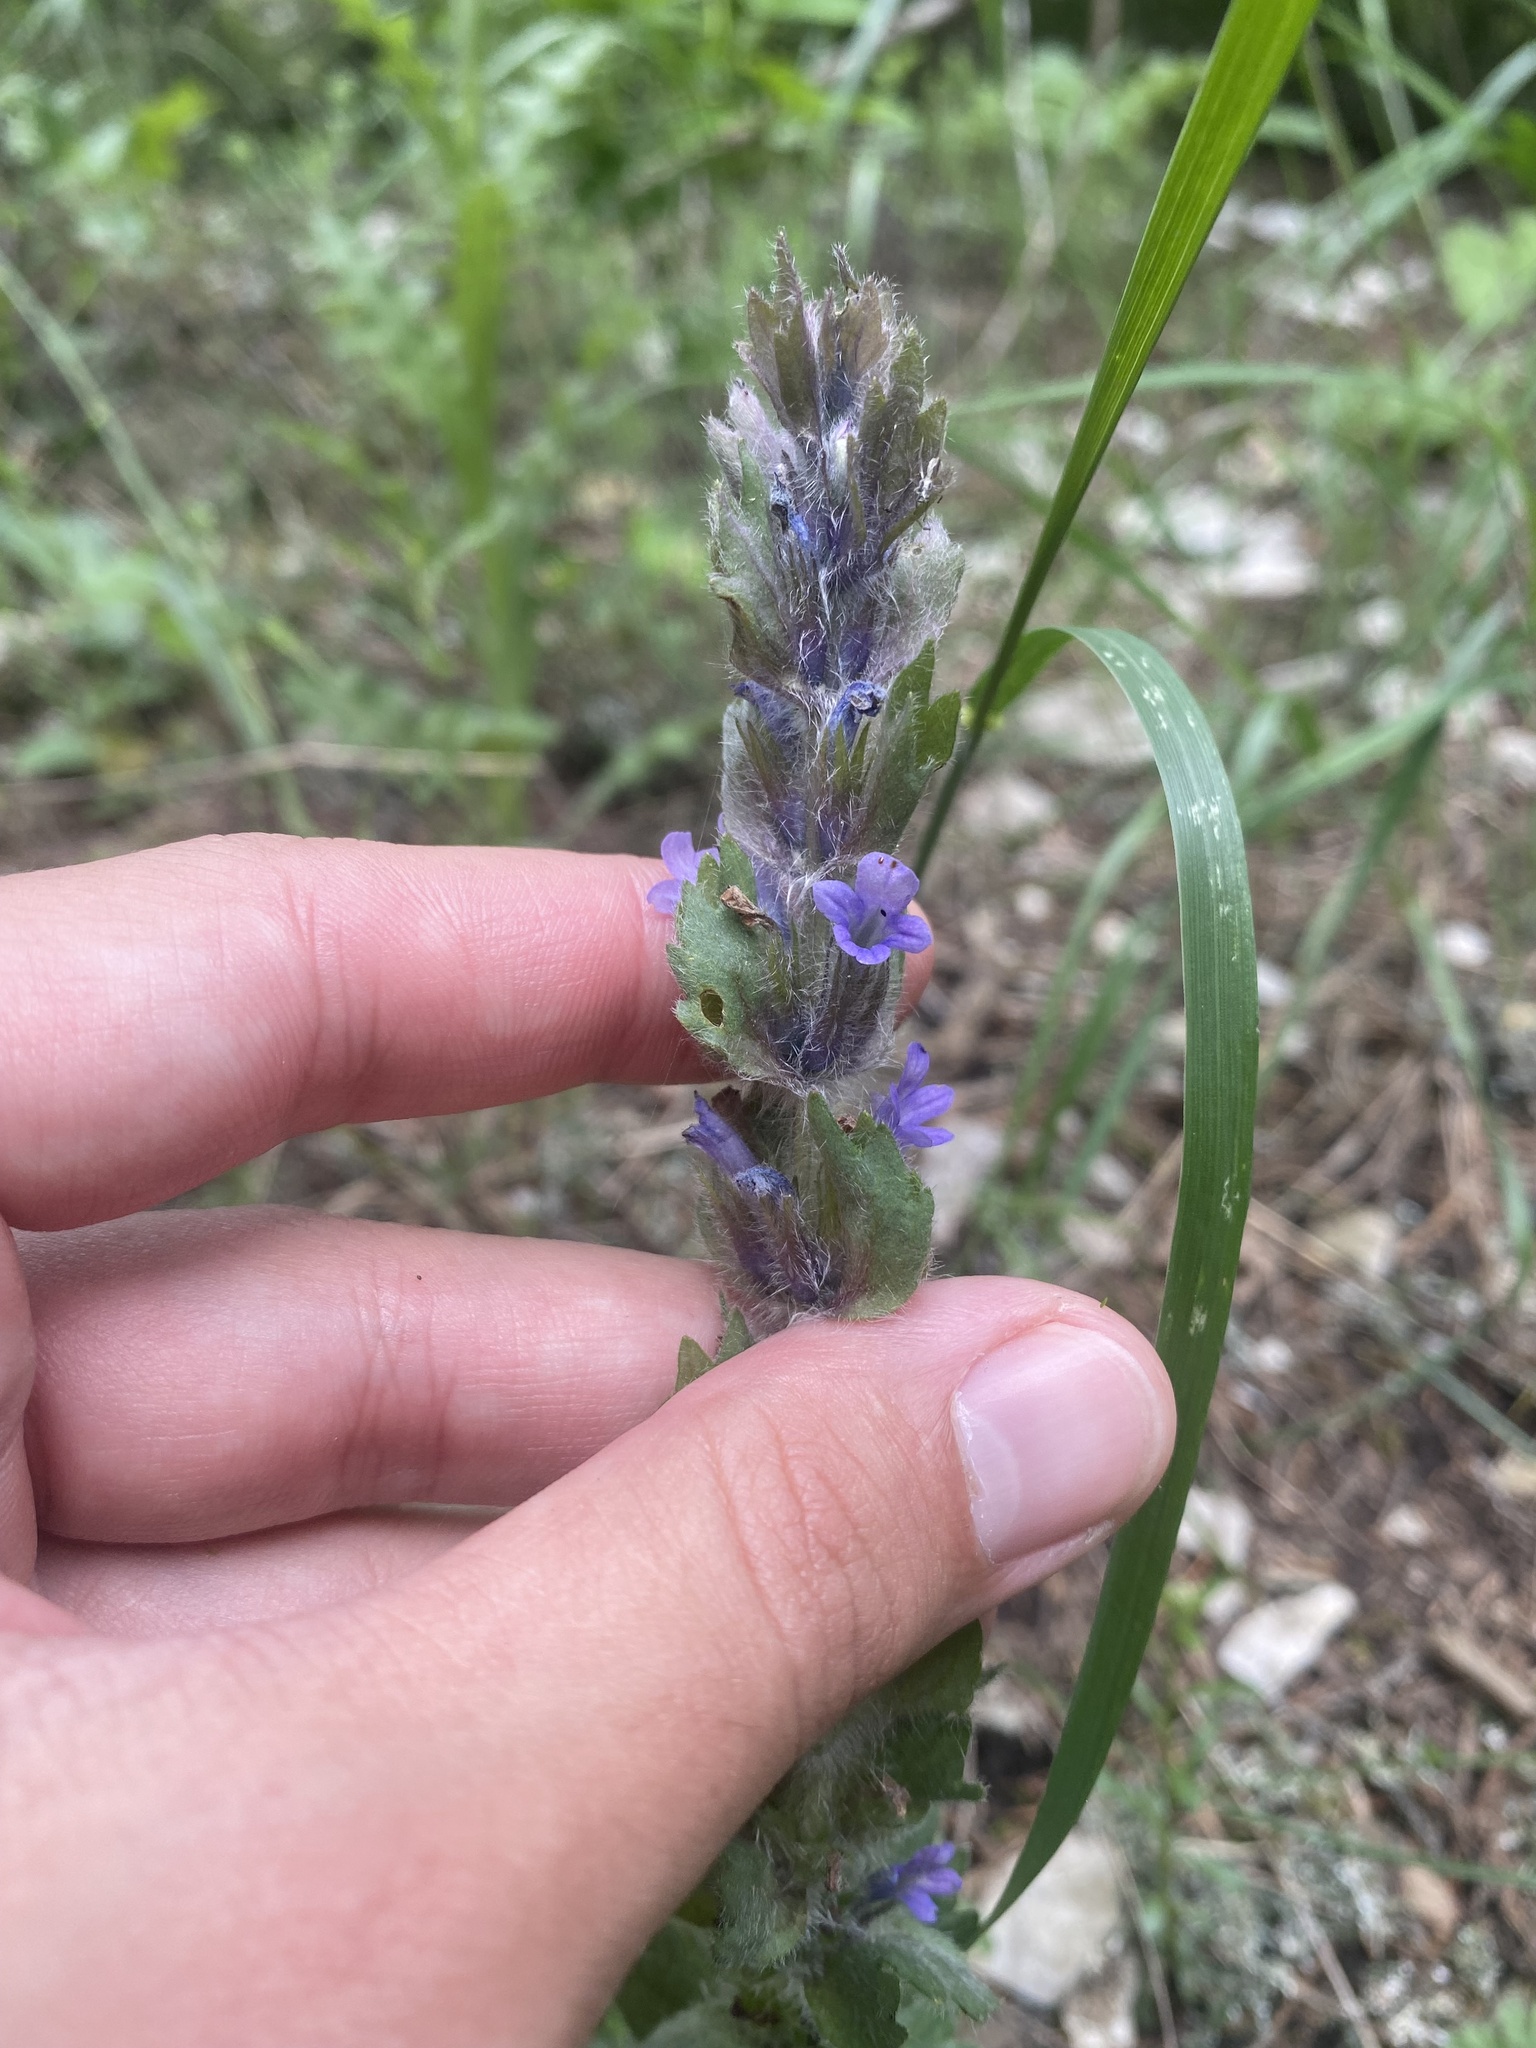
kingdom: Plantae
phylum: Tracheophyta
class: Magnoliopsida
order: Lamiales
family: Lamiaceae
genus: Ajuga
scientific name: Ajuga orientalis
